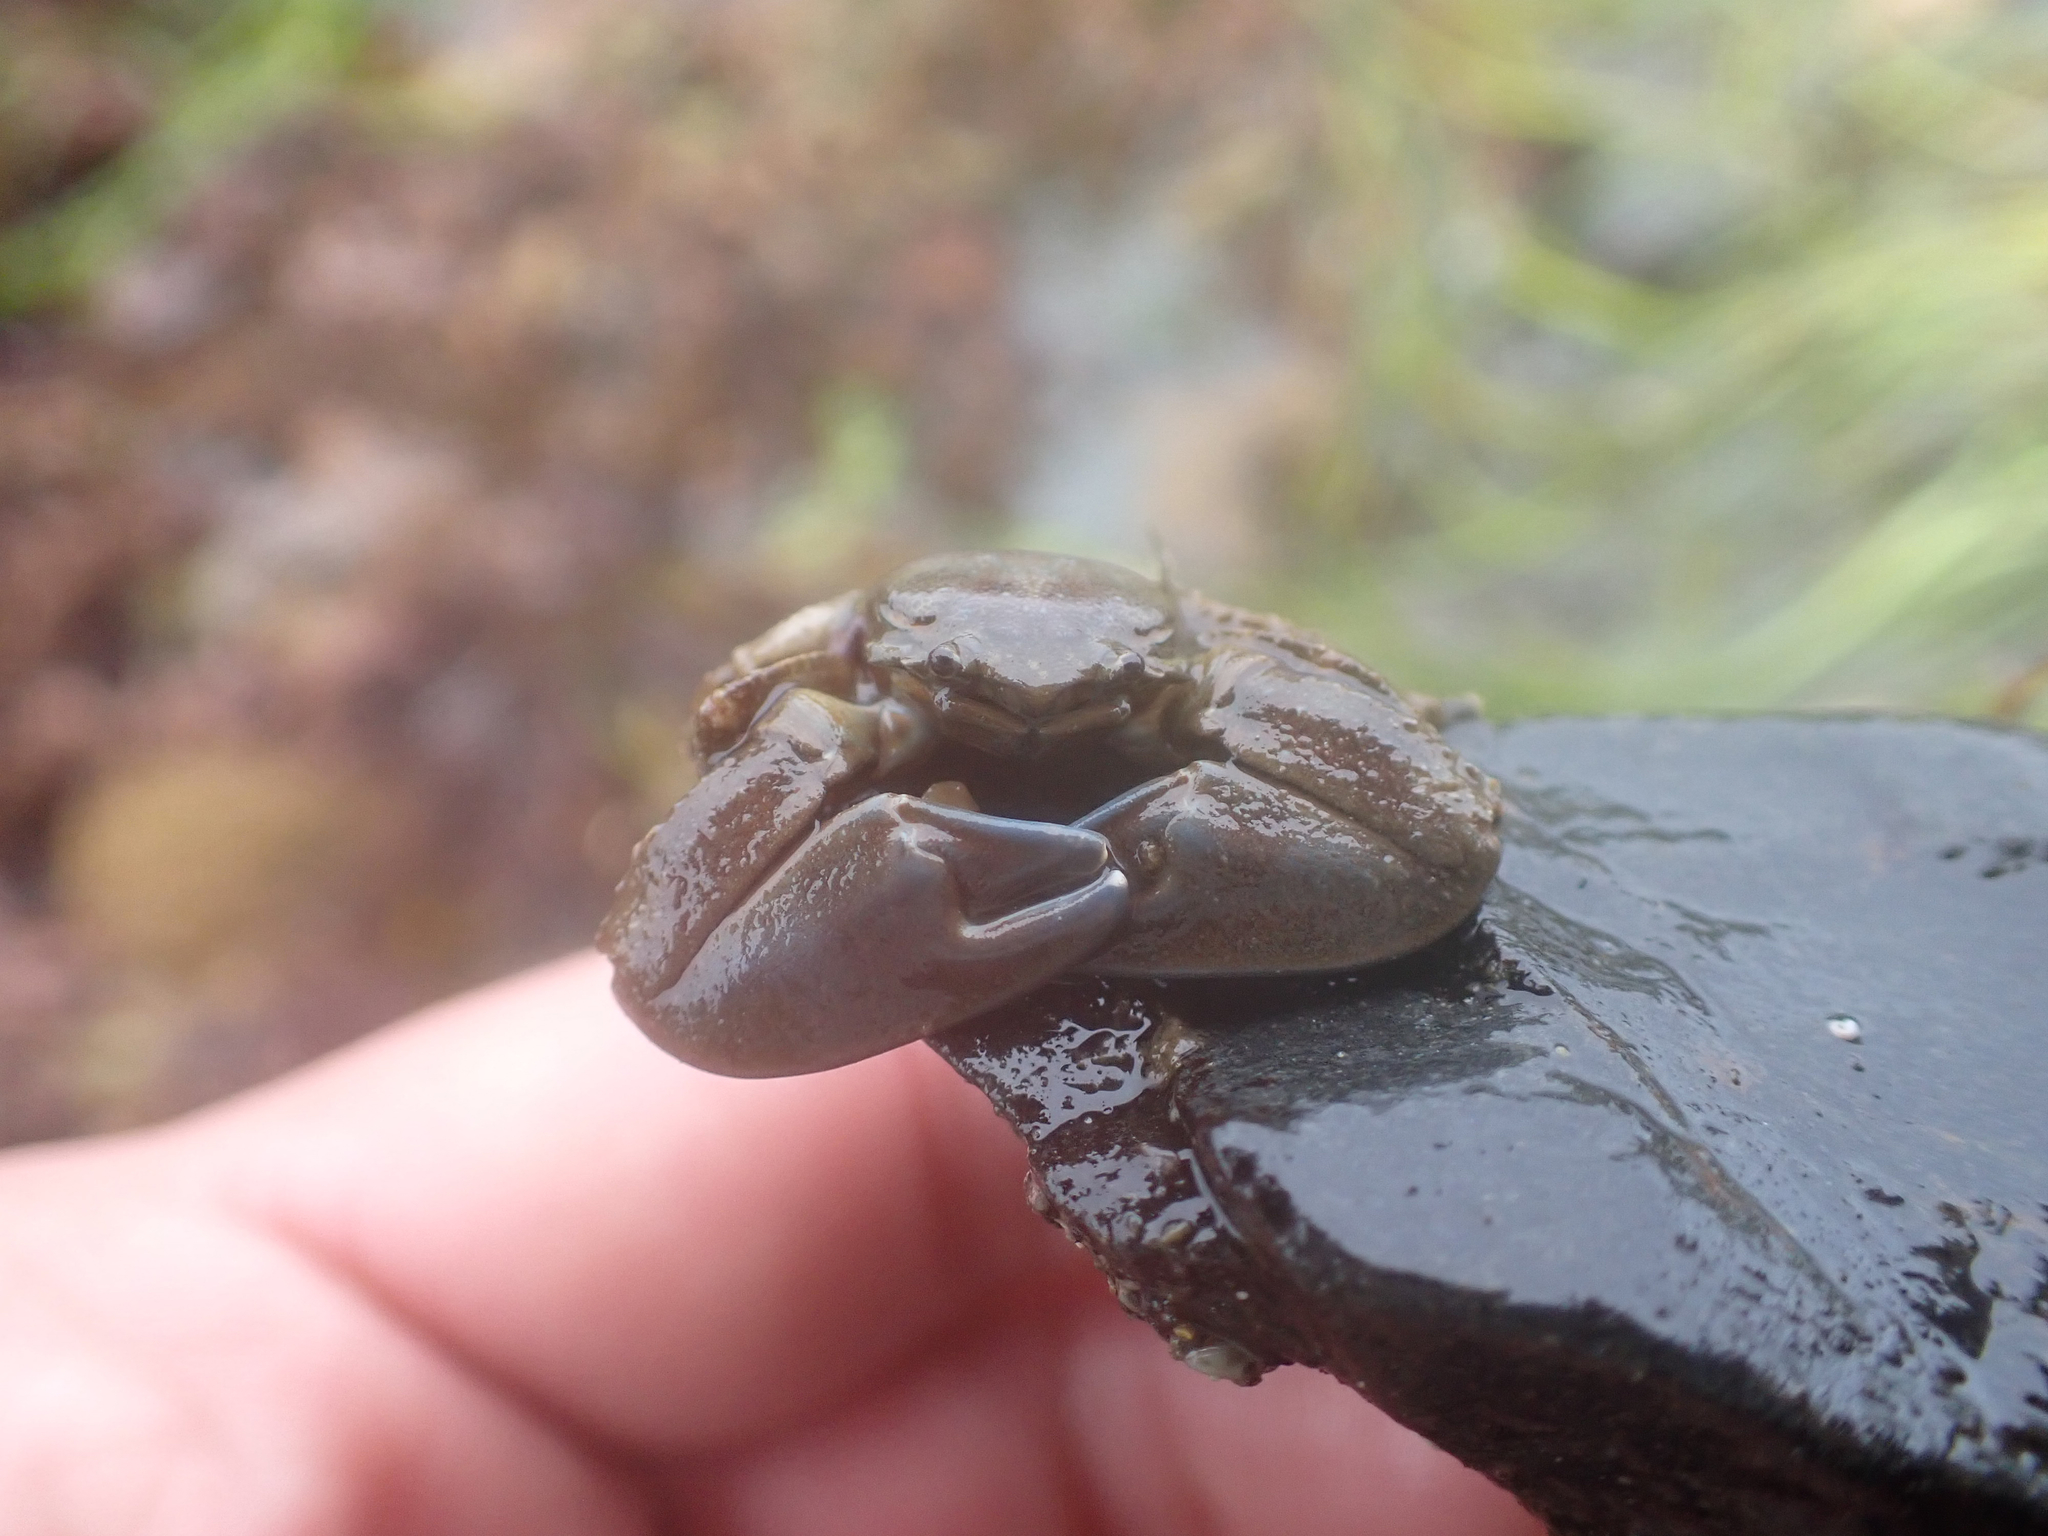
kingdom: Animalia
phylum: Arthropoda
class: Malacostraca
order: Decapoda
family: Porcellanidae
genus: Petrolisthes
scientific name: Petrolisthes eriomerus
